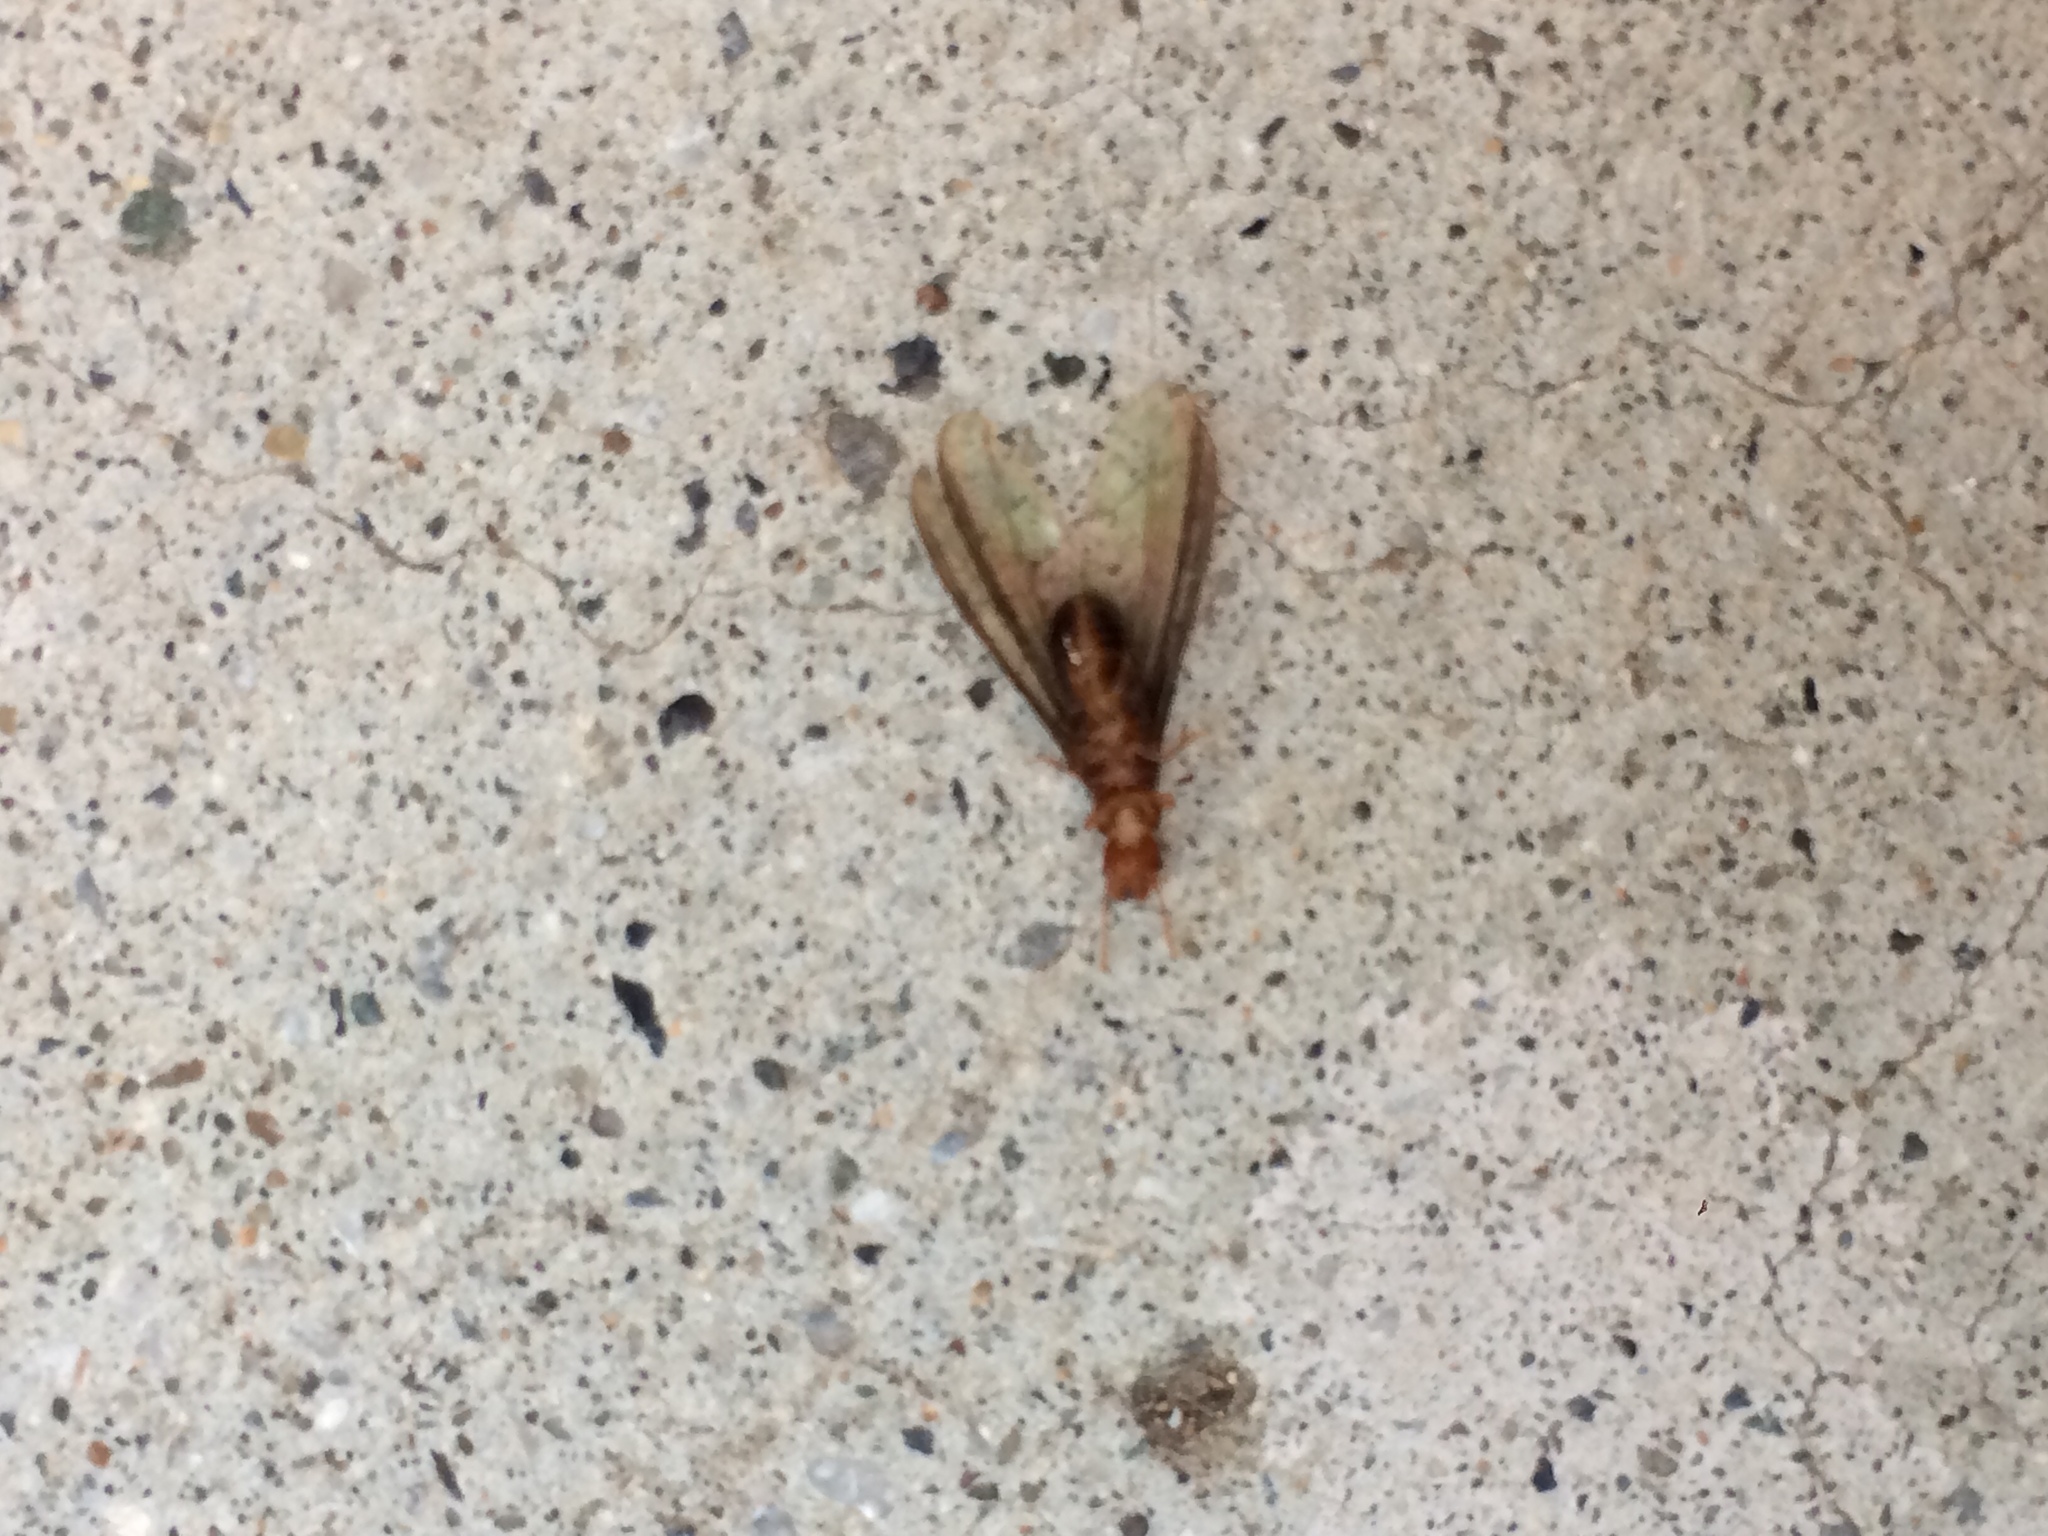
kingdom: Animalia
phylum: Arthropoda
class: Insecta
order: Blattodea
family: Kalotermitidae
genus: Incisitermes
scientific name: Incisitermes minor
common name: Termite
